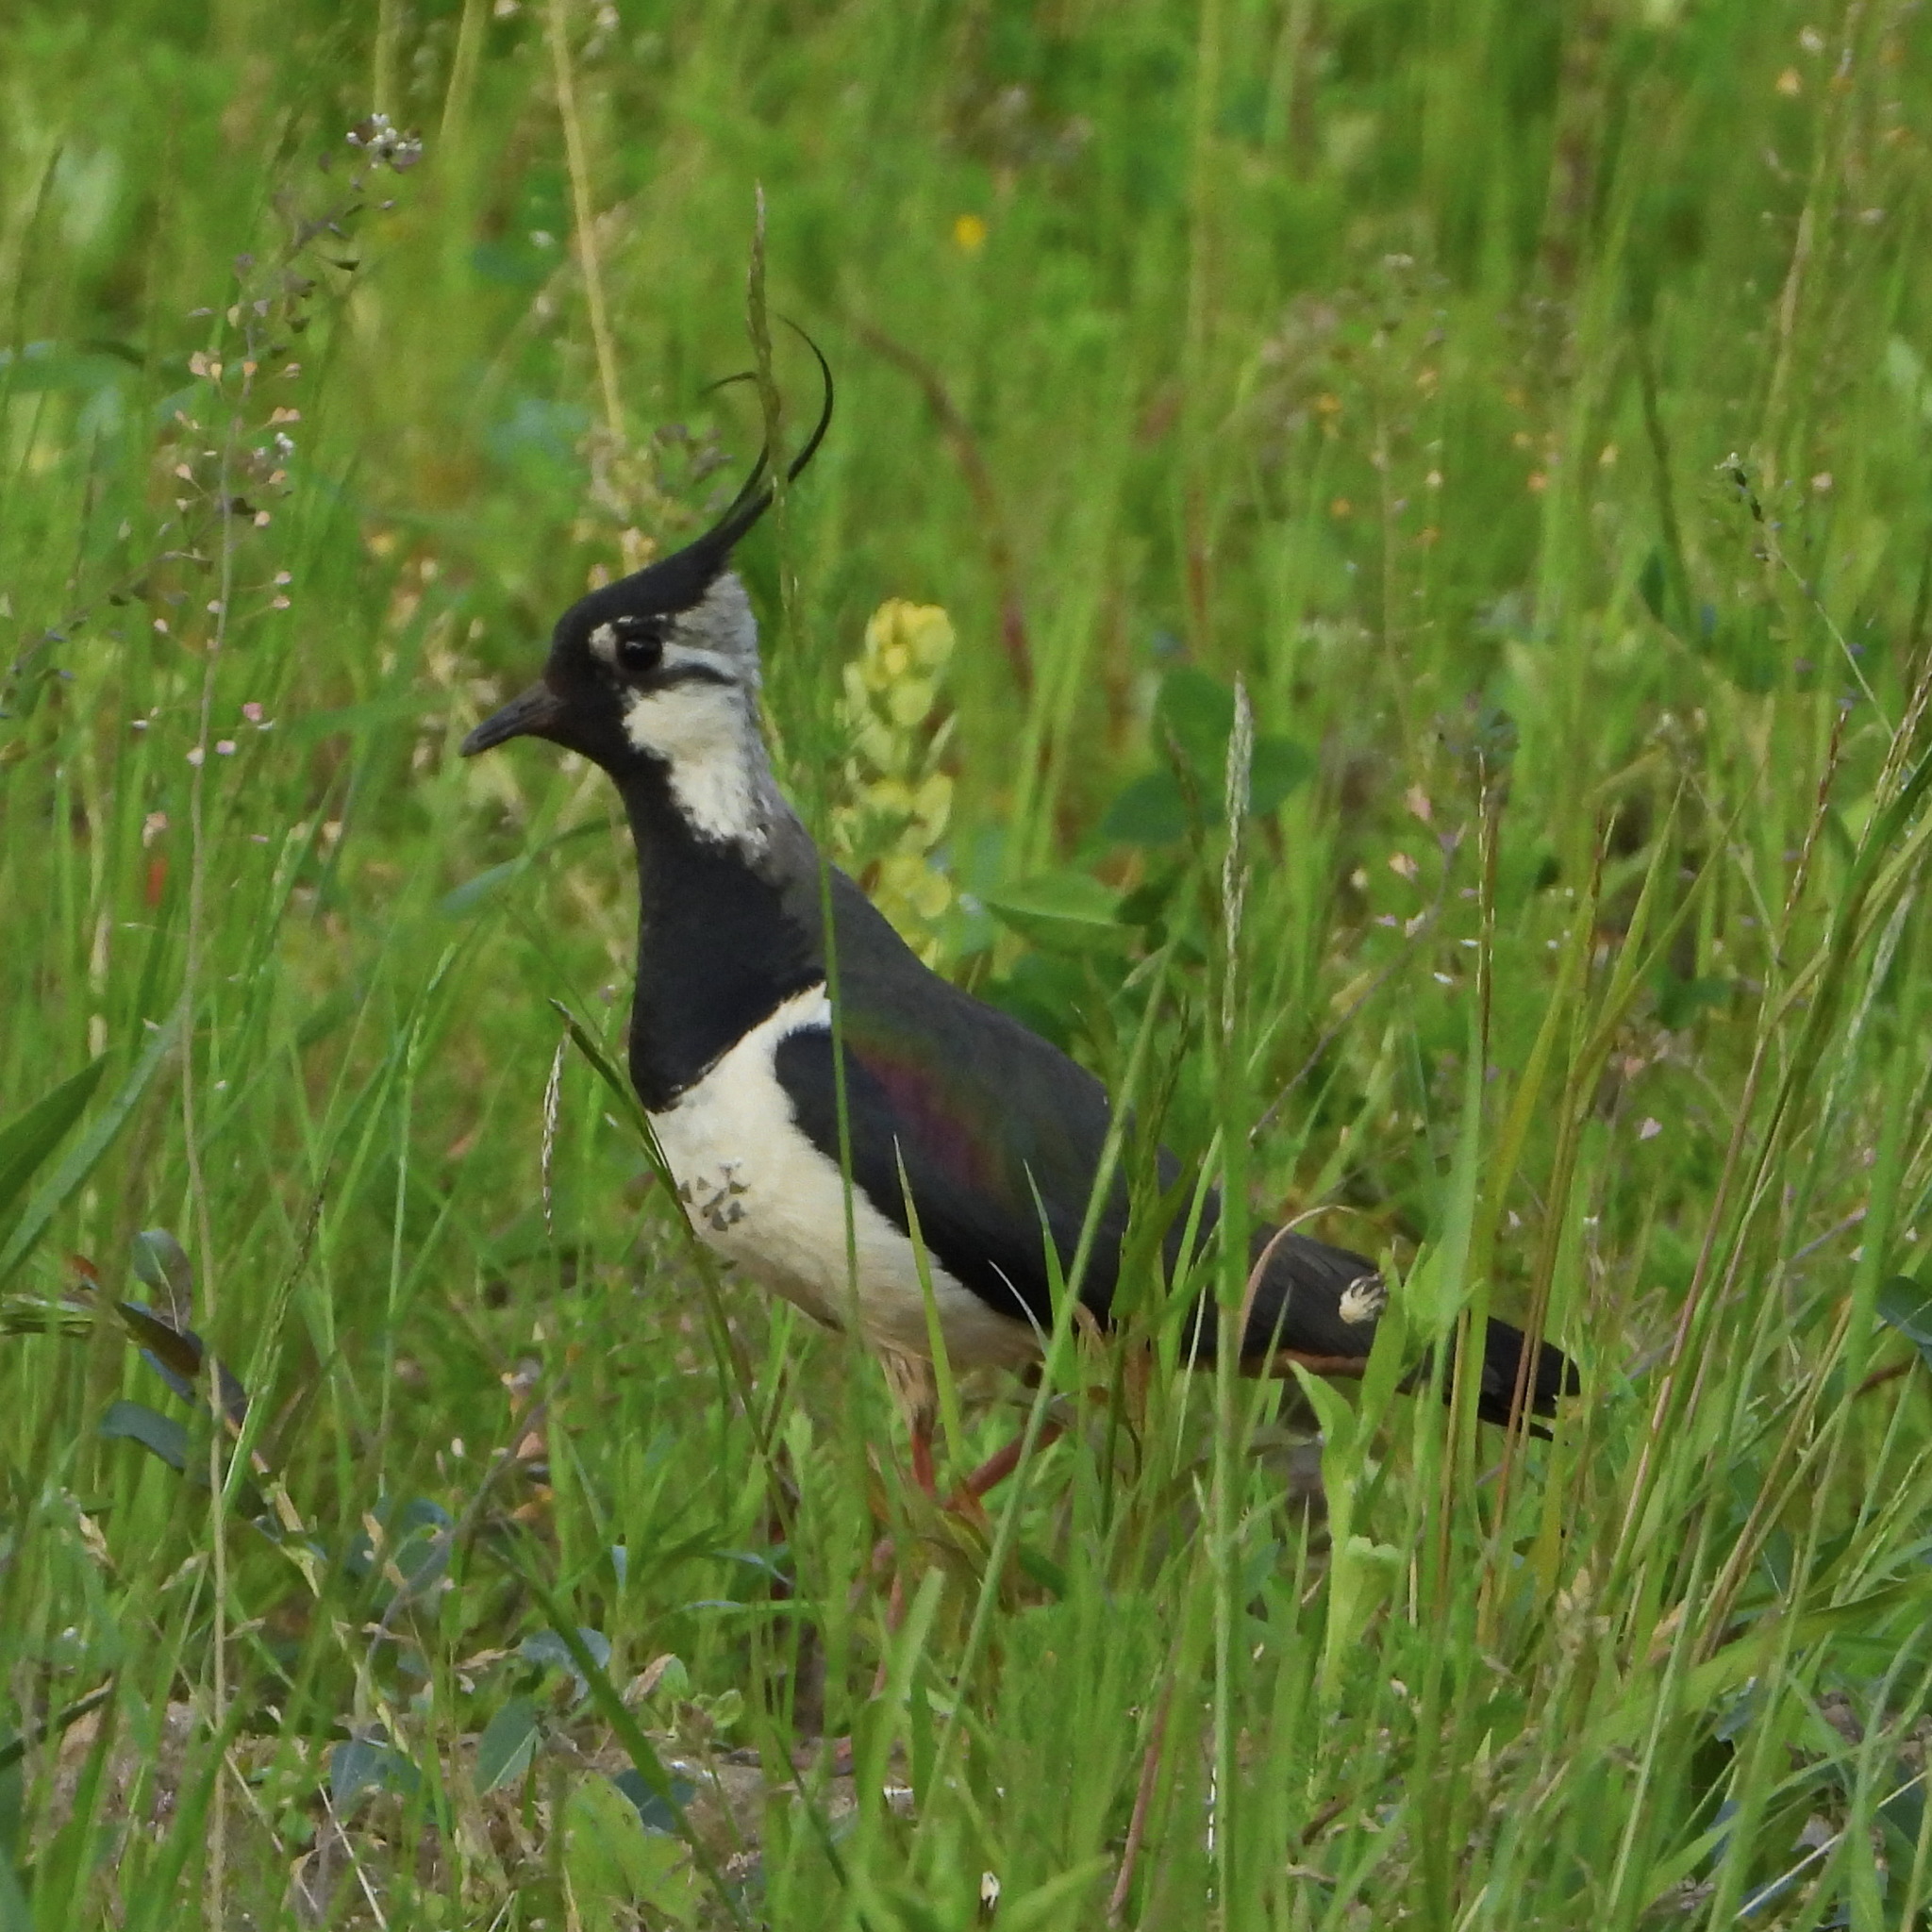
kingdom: Animalia
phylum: Chordata
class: Aves
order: Charadriiformes
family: Charadriidae
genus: Vanellus
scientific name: Vanellus vanellus
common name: Northern lapwing
